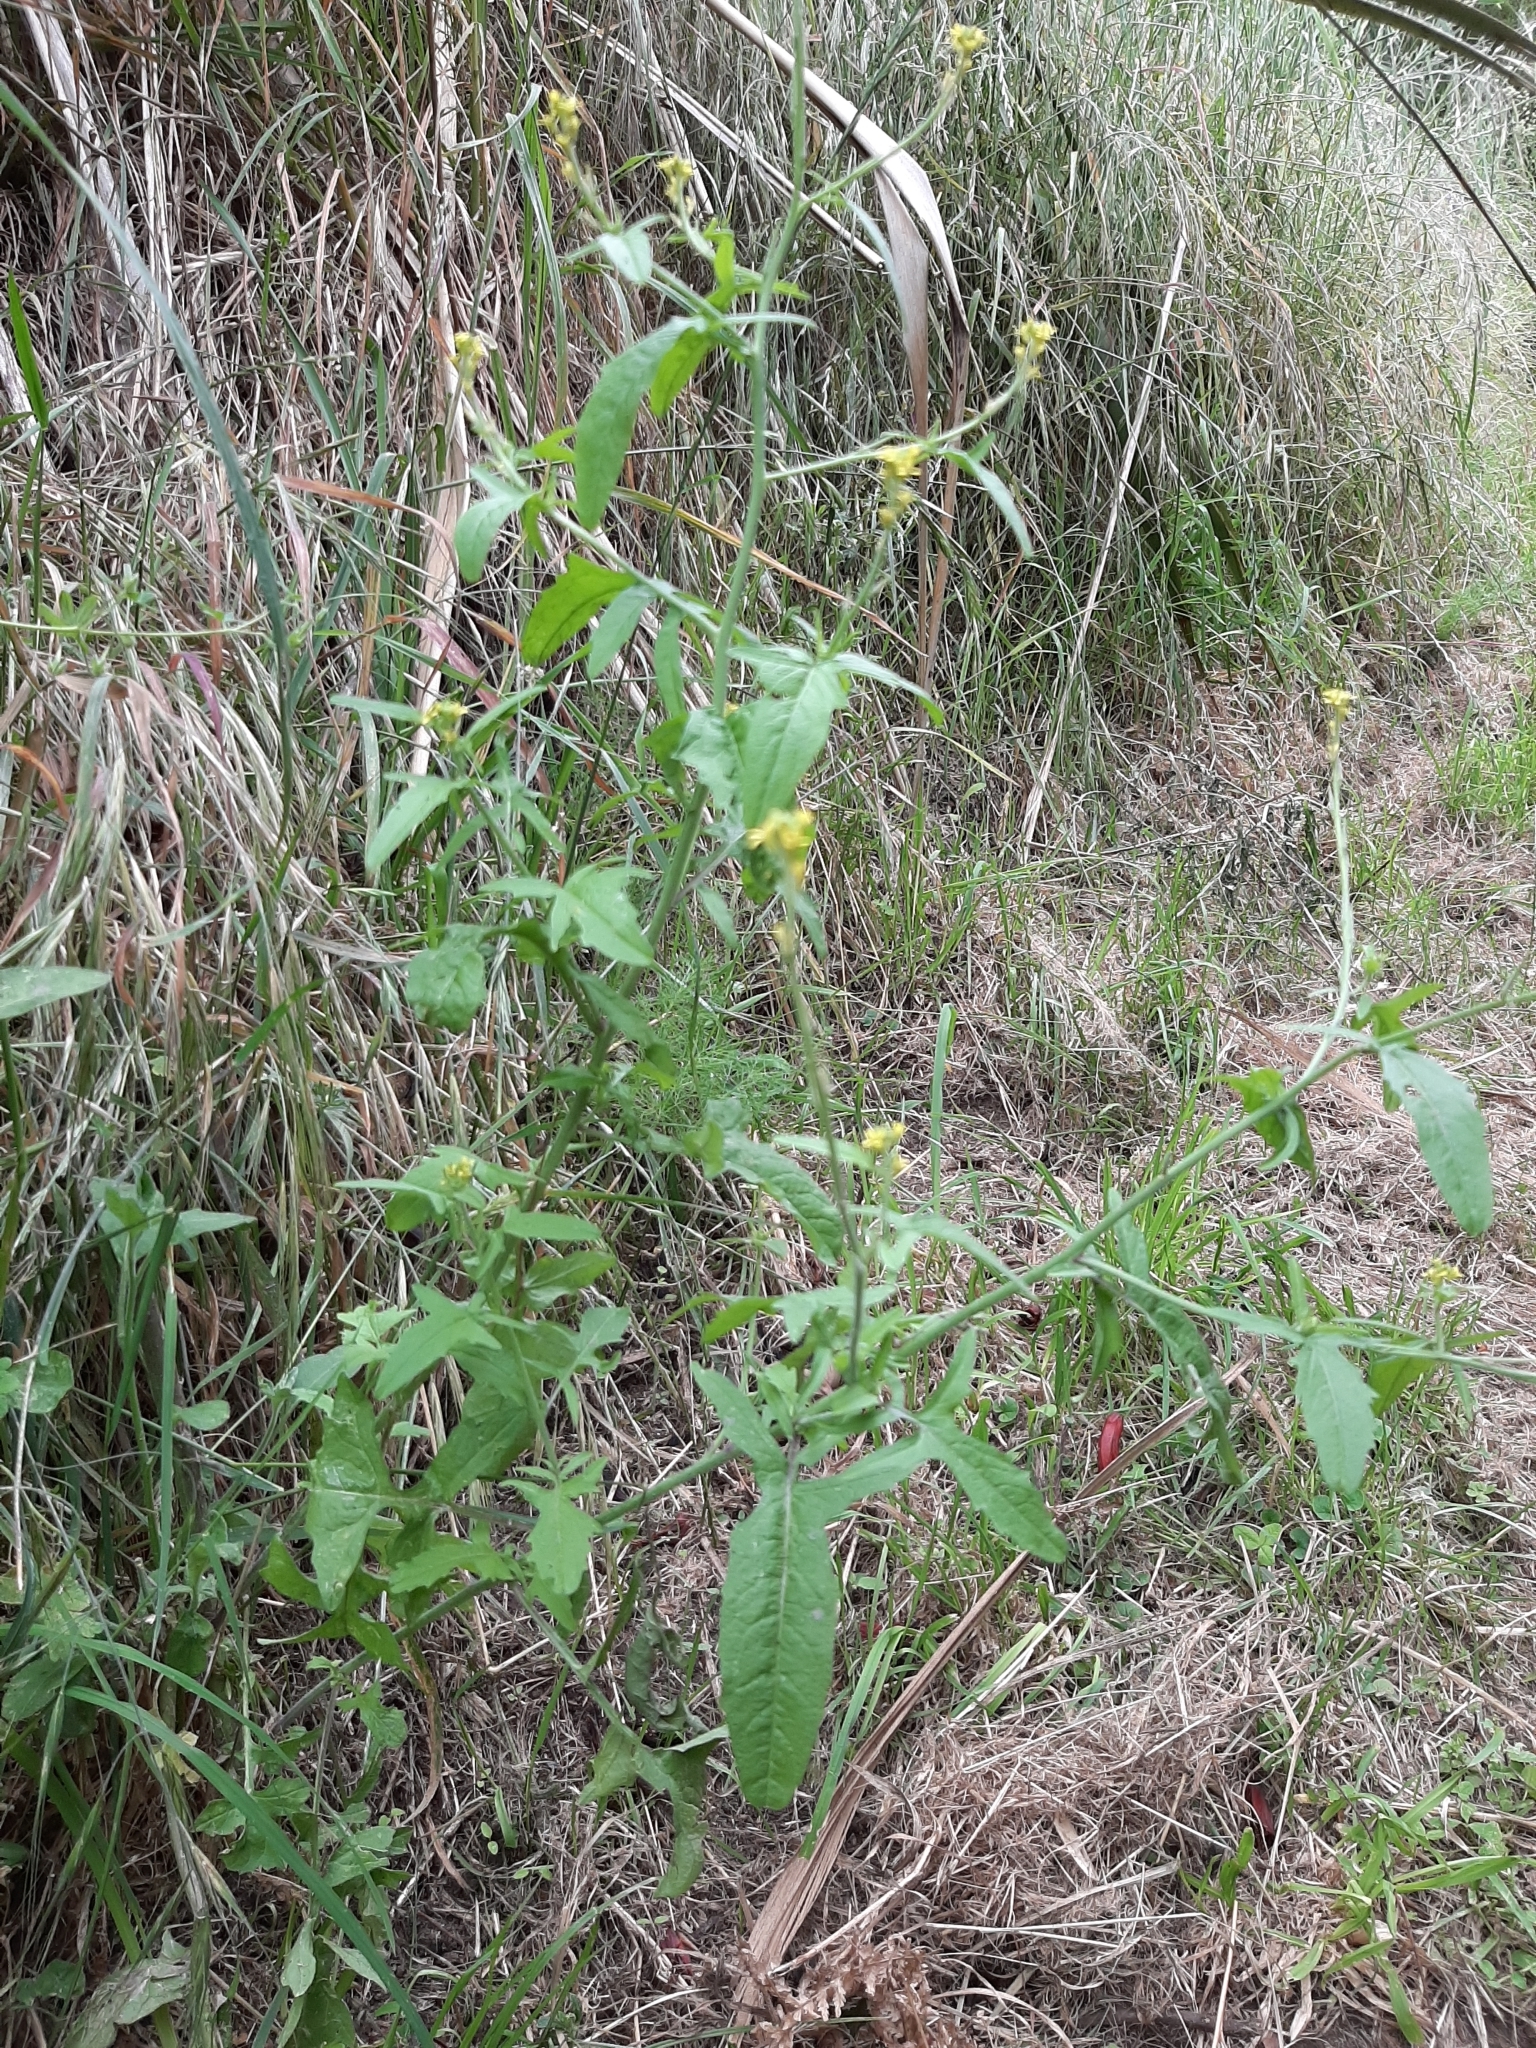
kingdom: Plantae
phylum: Tracheophyta
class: Magnoliopsida
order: Brassicales
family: Brassicaceae
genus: Sisymbrium
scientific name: Sisymbrium officinale
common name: Hedge mustard
